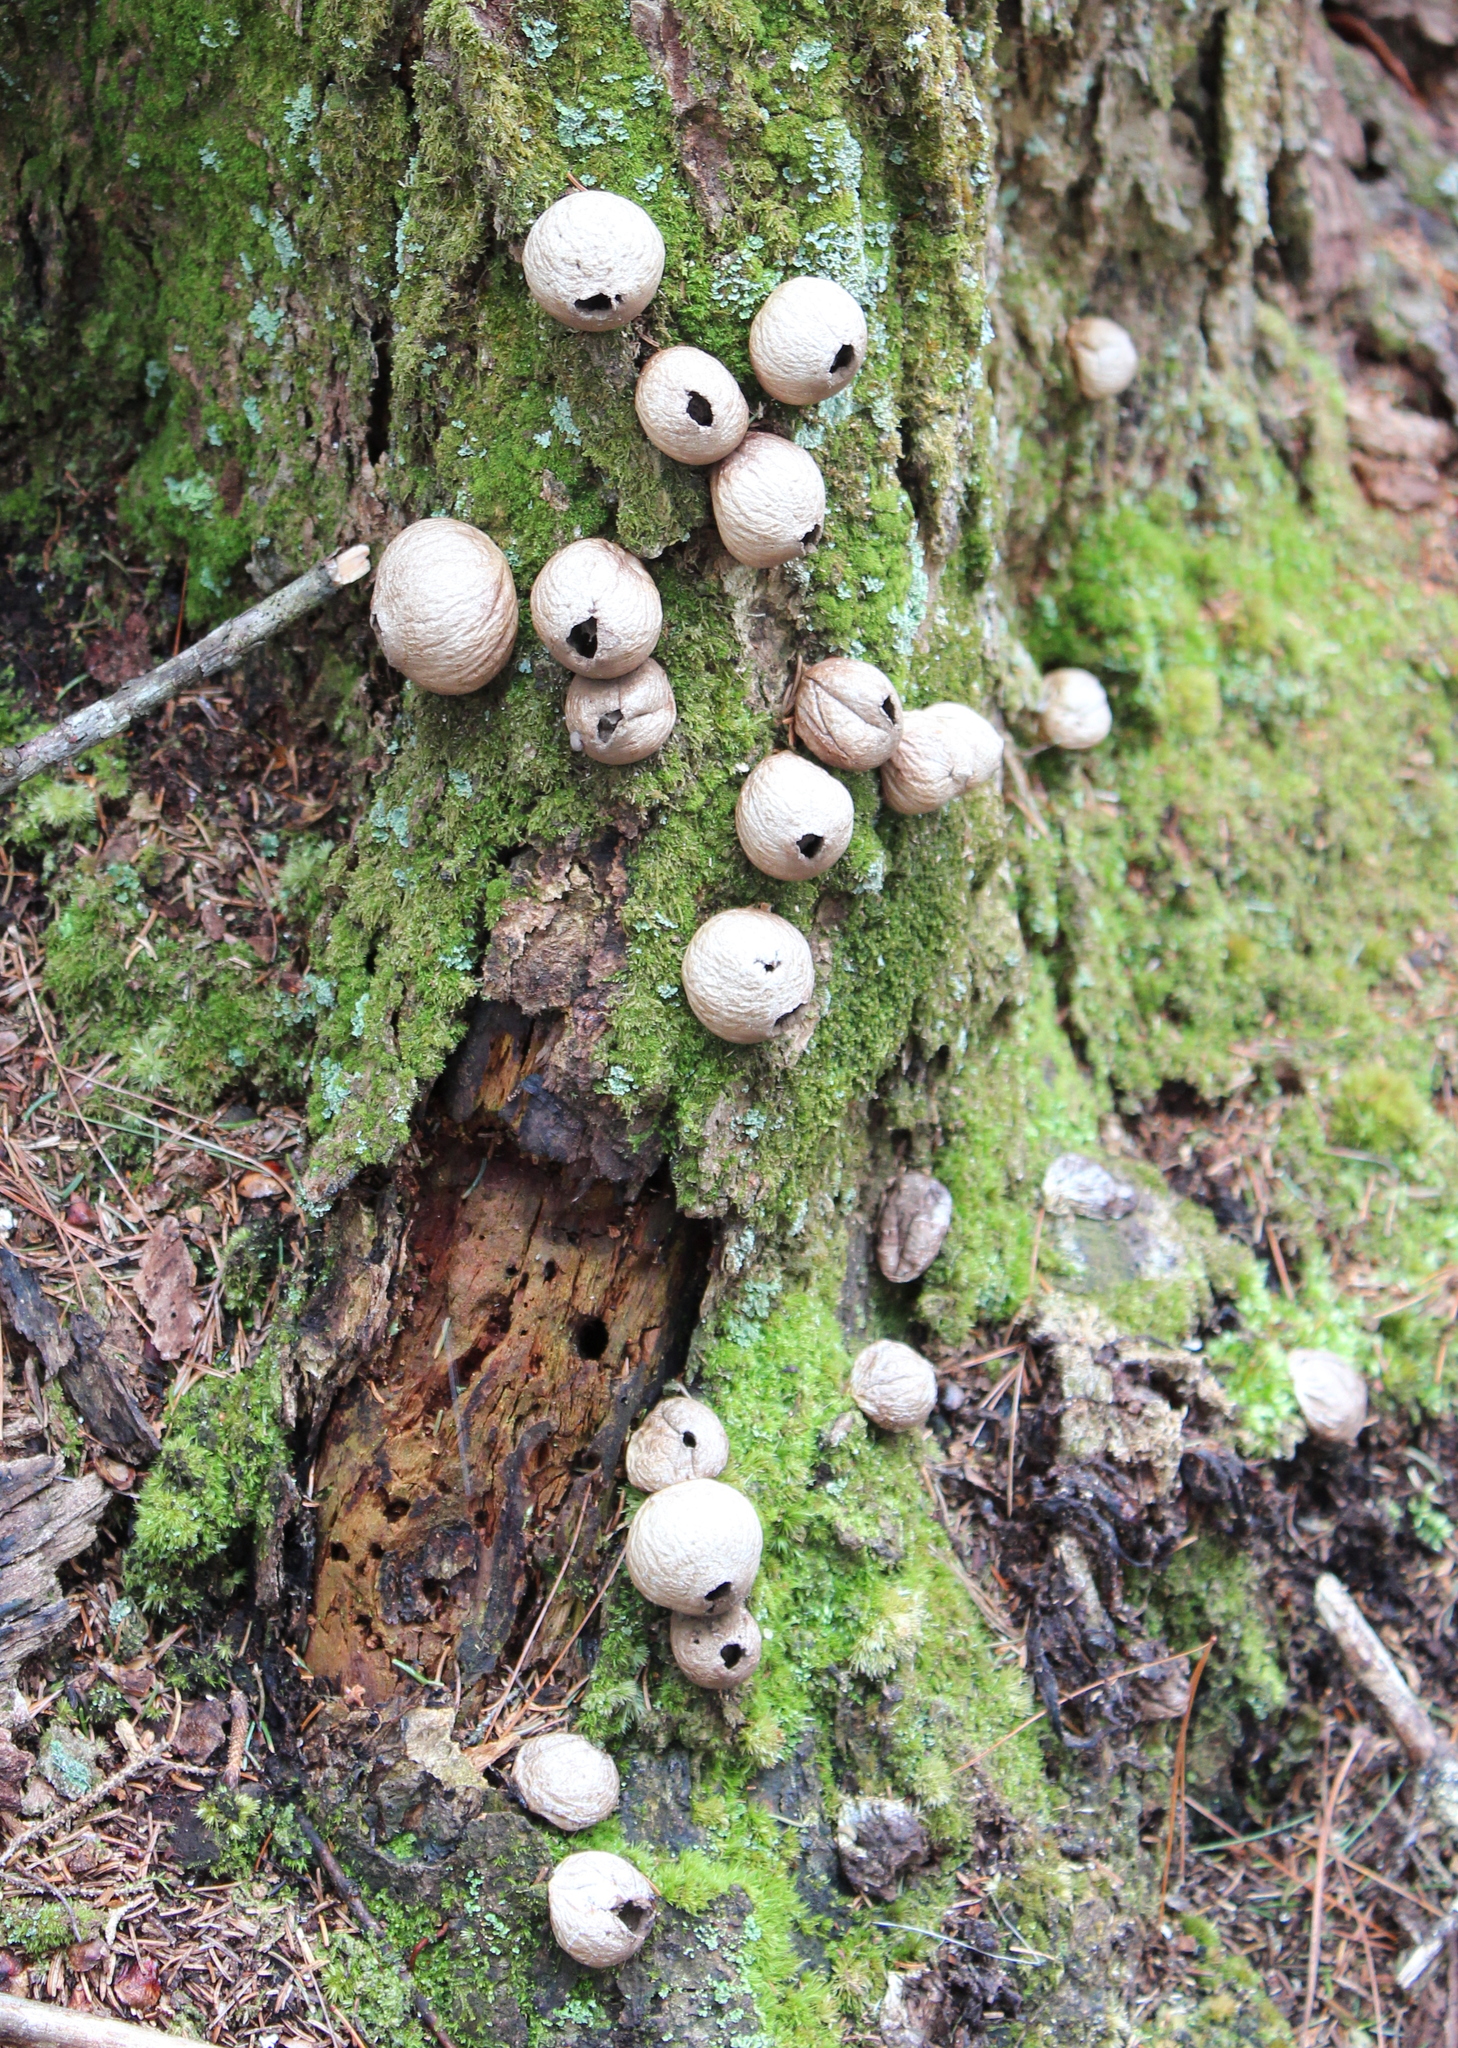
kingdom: Fungi
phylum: Basidiomycota
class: Agaricomycetes
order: Agaricales
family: Lycoperdaceae
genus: Apioperdon
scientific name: Apioperdon pyriforme
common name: Pear-shaped puffball
